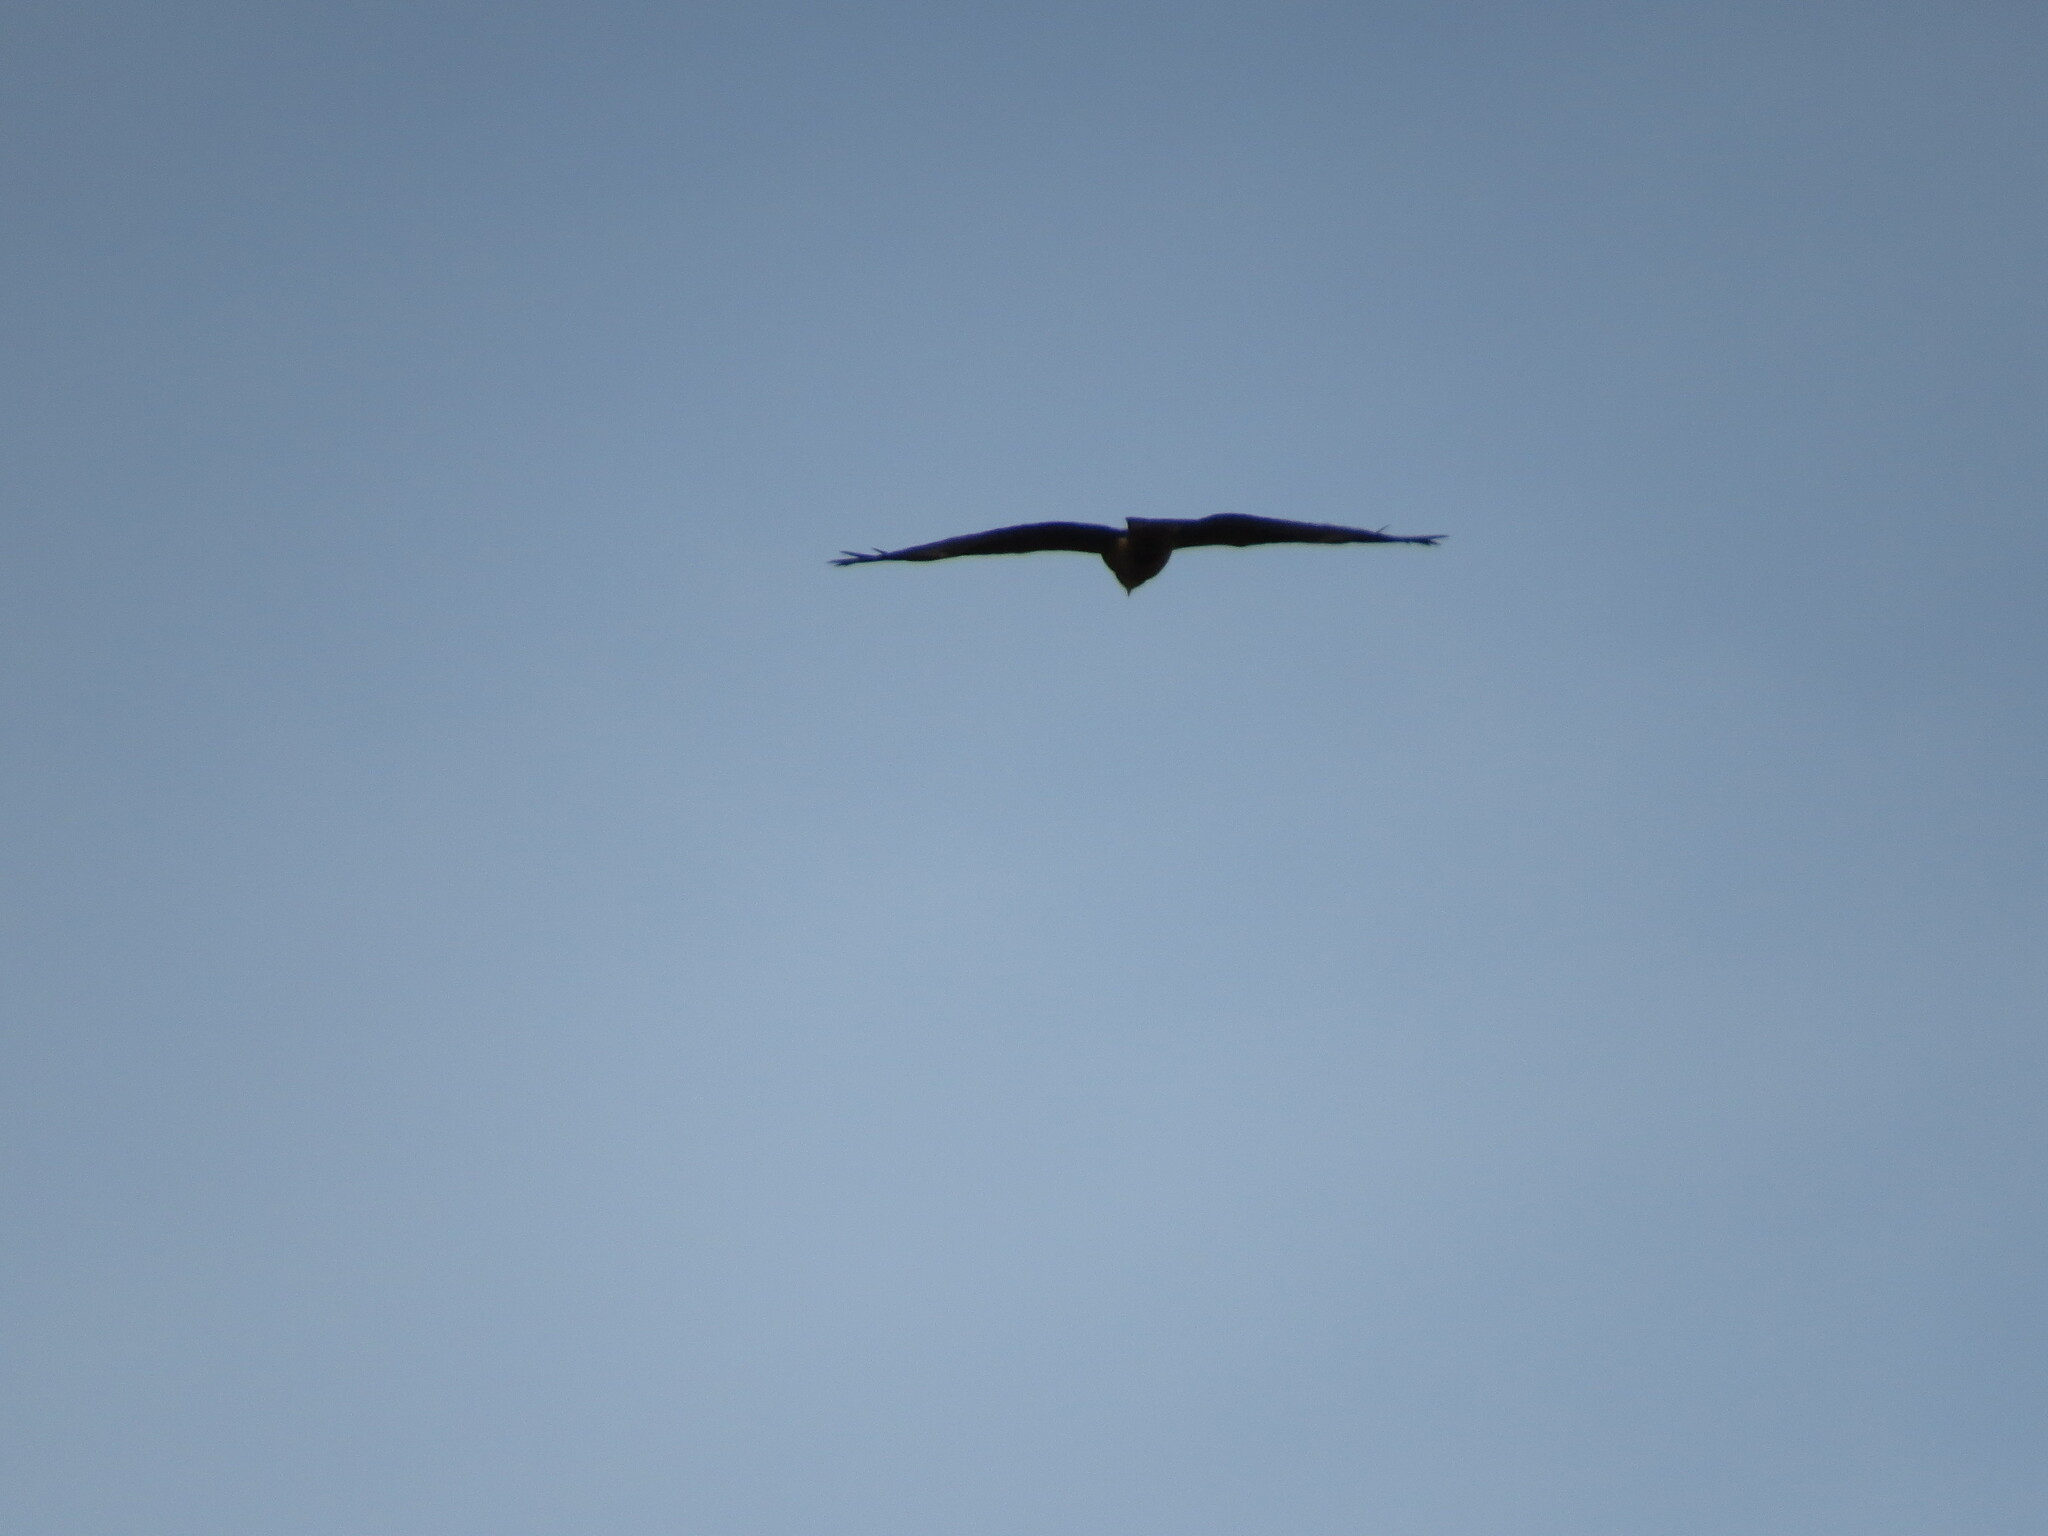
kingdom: Animalia
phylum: Chordata
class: Aves
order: Accipitriformes
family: Accipitridae
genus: Milvus
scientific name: Milvus migrans
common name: Black kite
